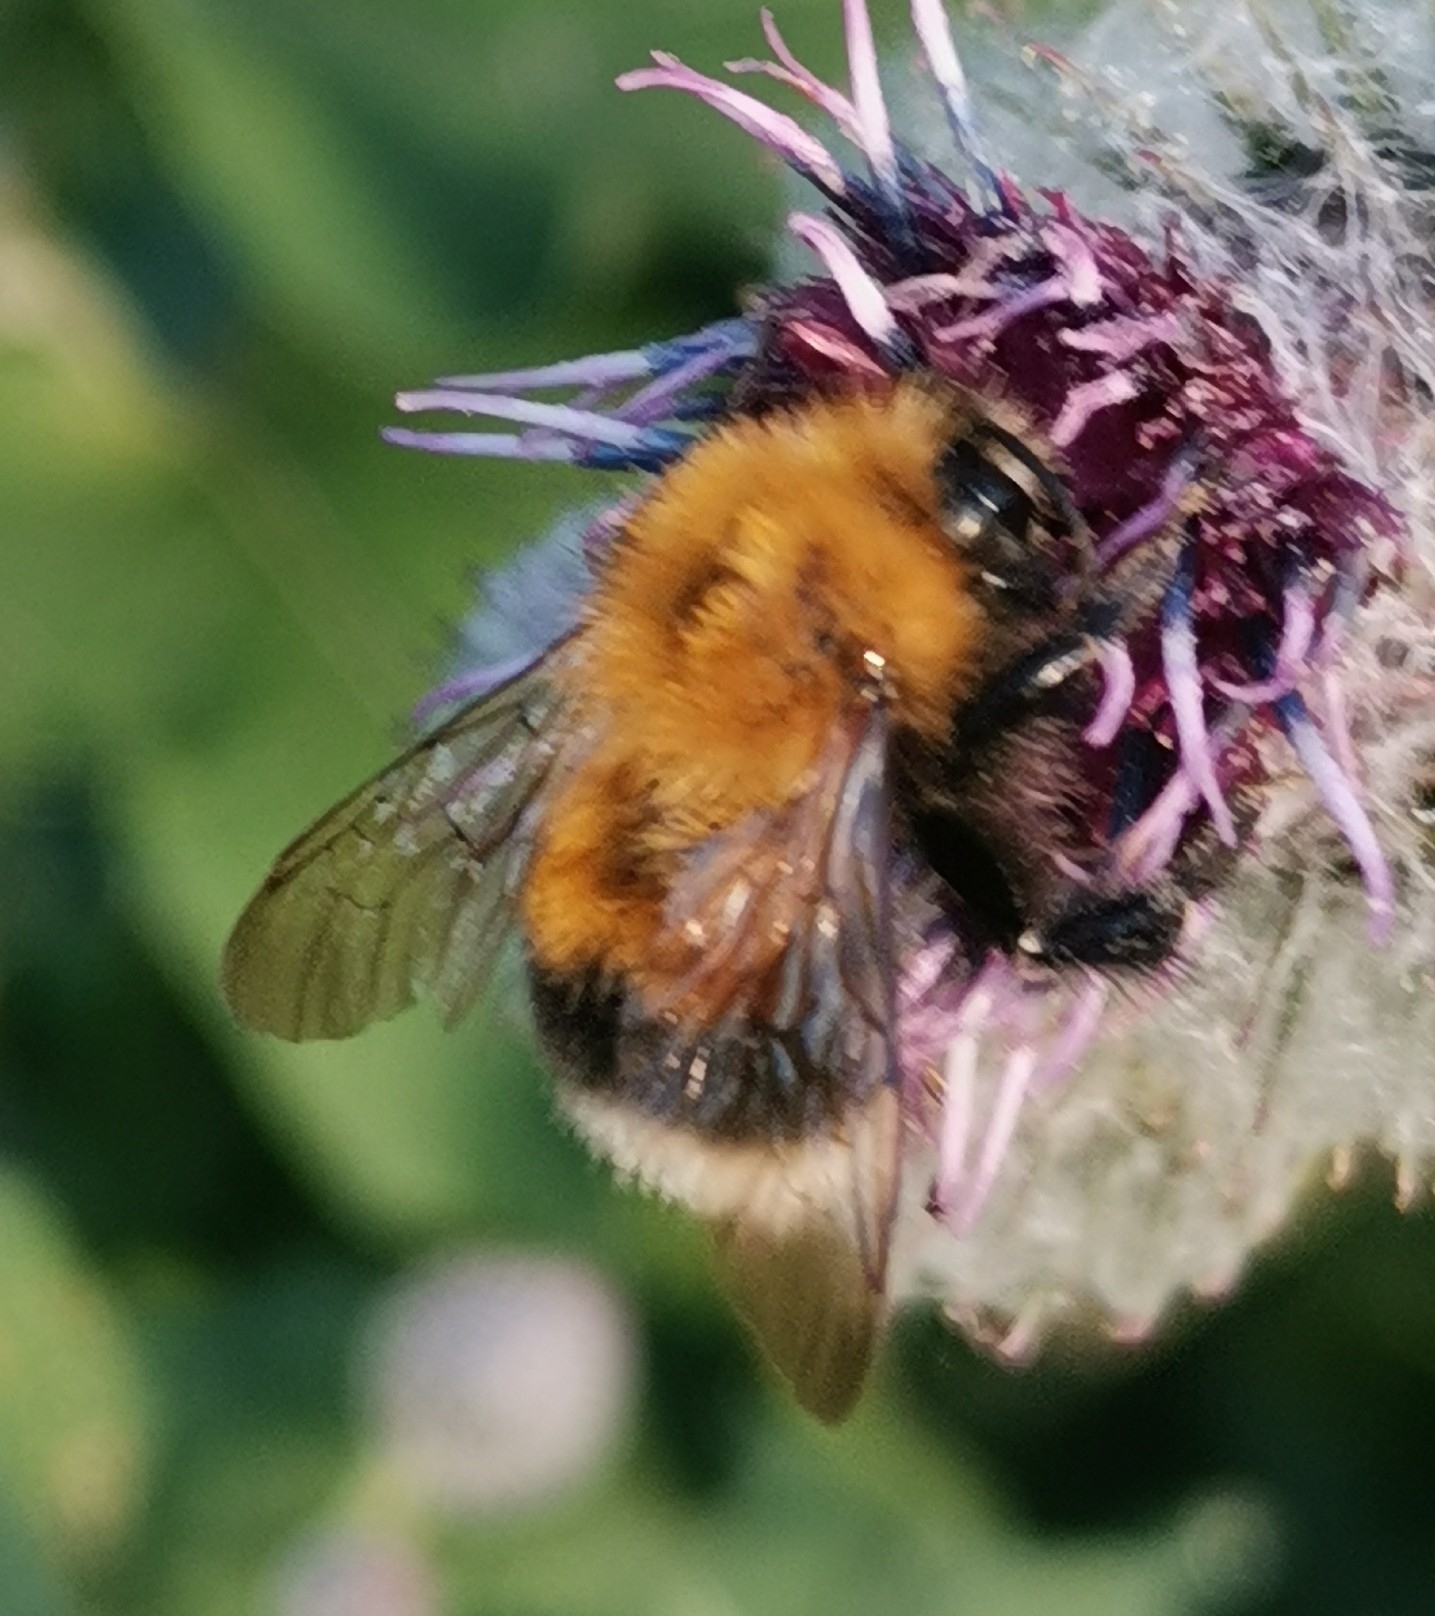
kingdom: Animalia
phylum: Arthropoda
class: Insecta
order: Hymenoptera
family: Apidae
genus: Bombus
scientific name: Bombus hypnorum
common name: New garden bumblebee
